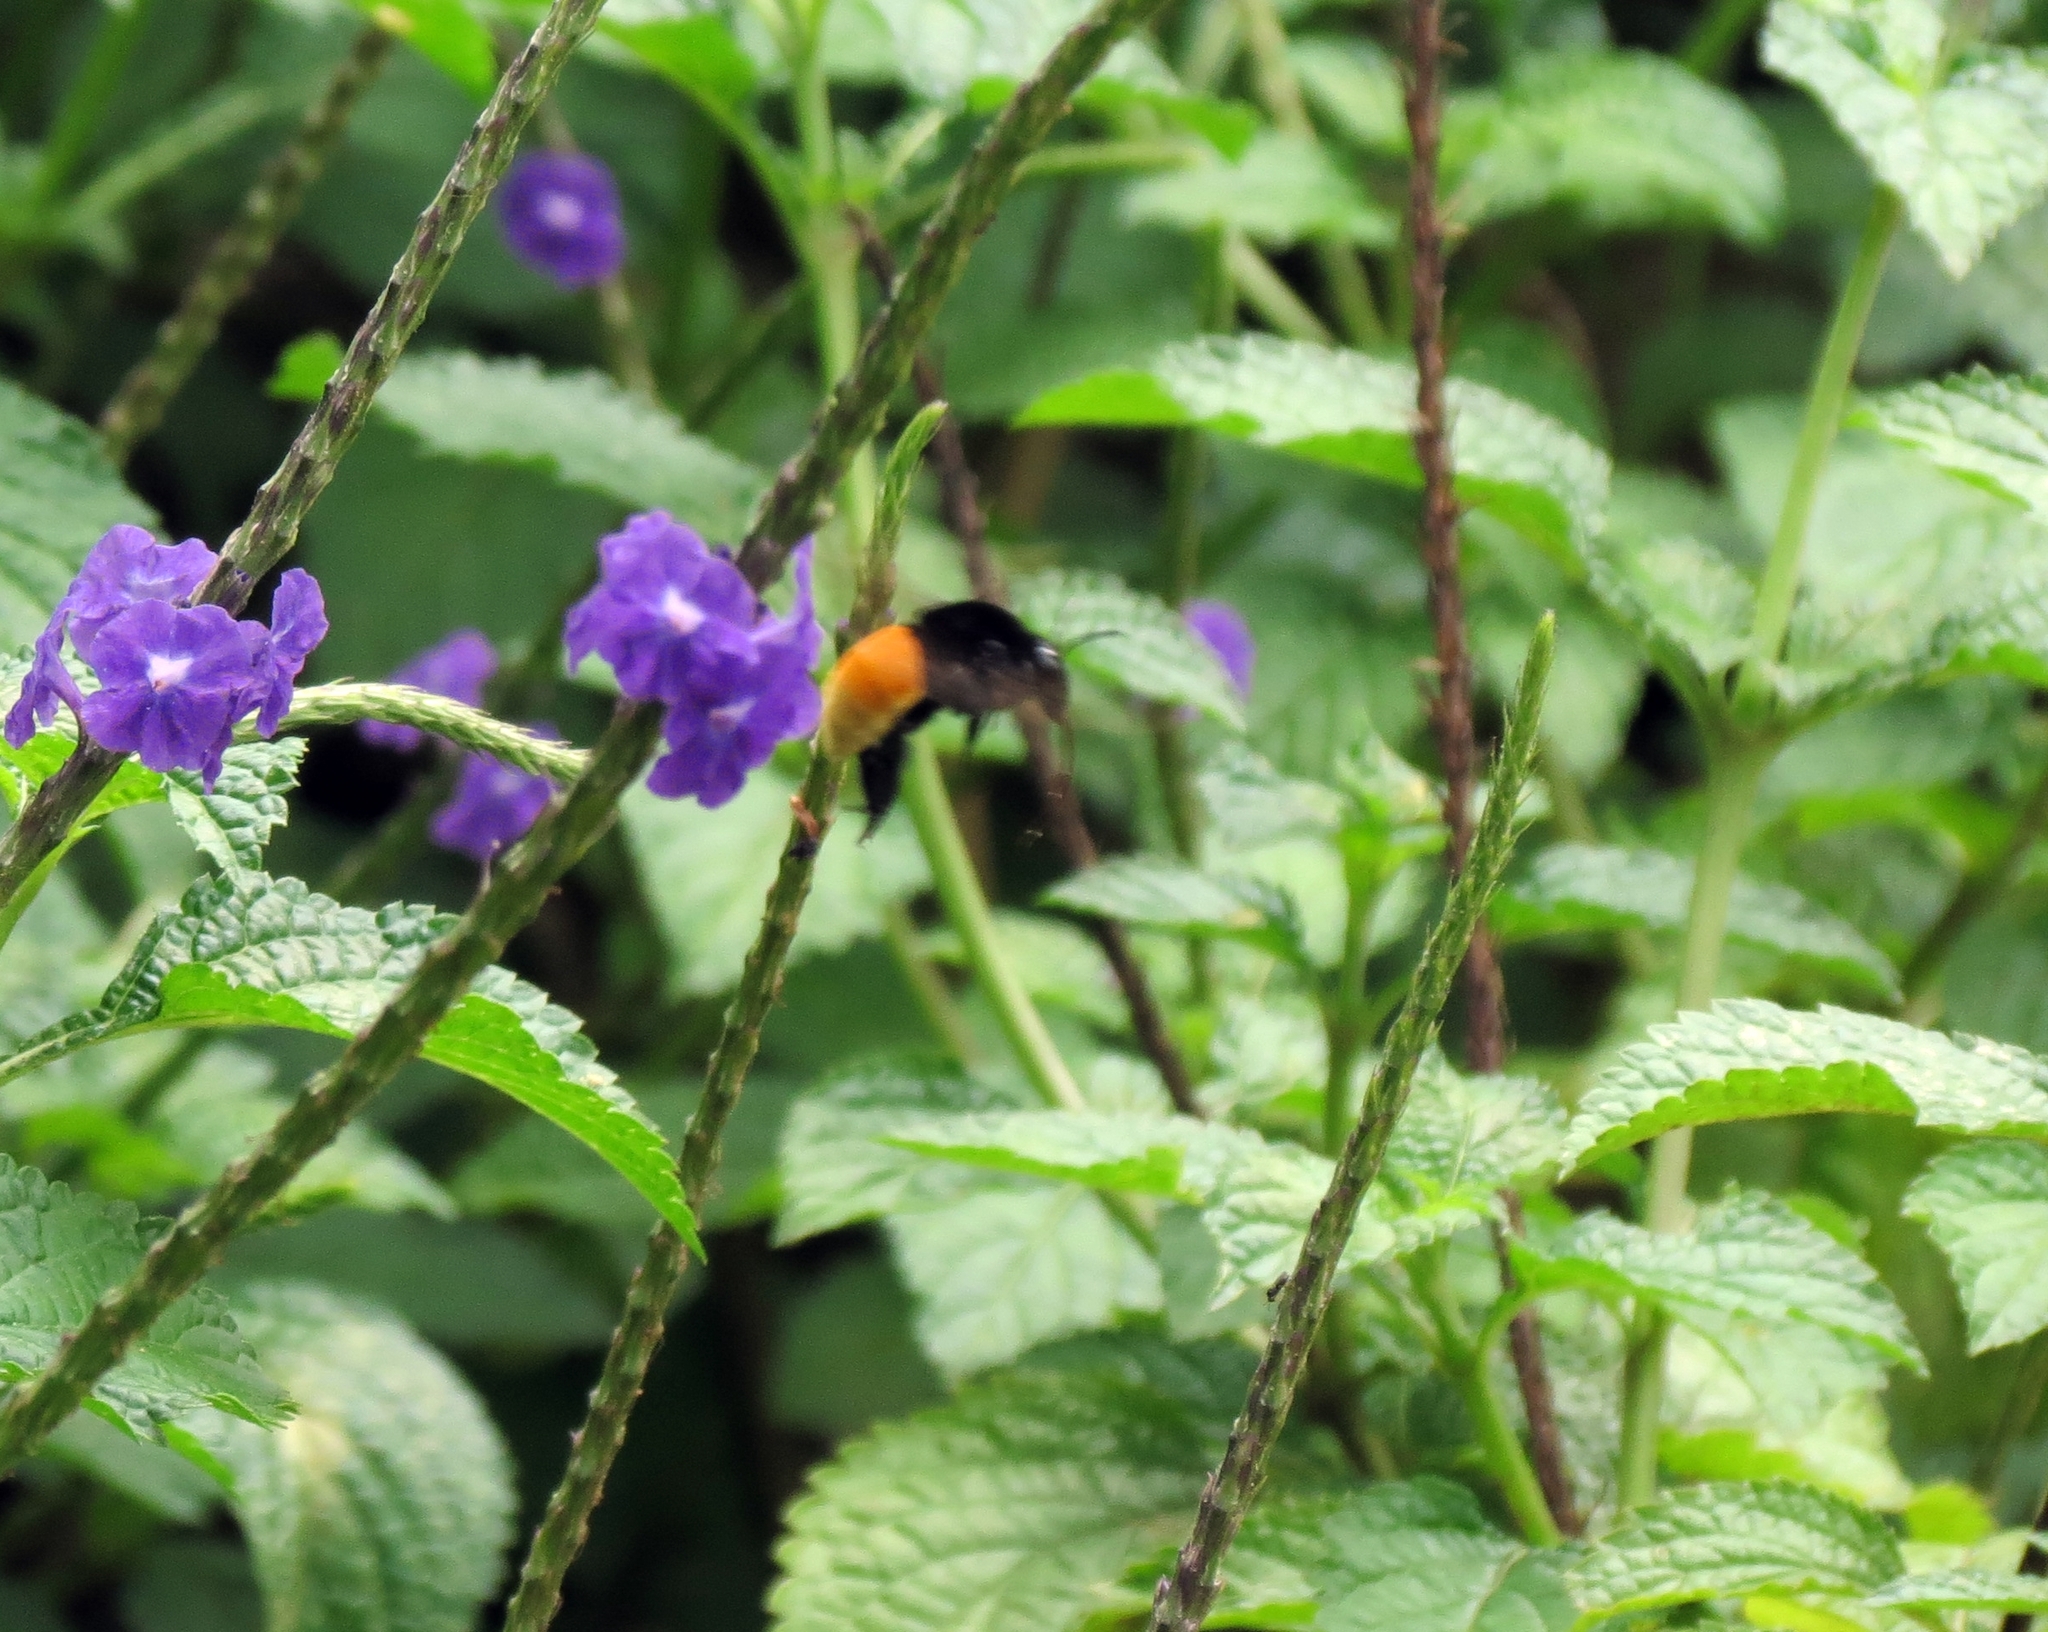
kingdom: Animalia
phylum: Arthropoda
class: Insecta
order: Hymenoptera
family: Apidae
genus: Eulaema
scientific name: Eulaema polychroma
